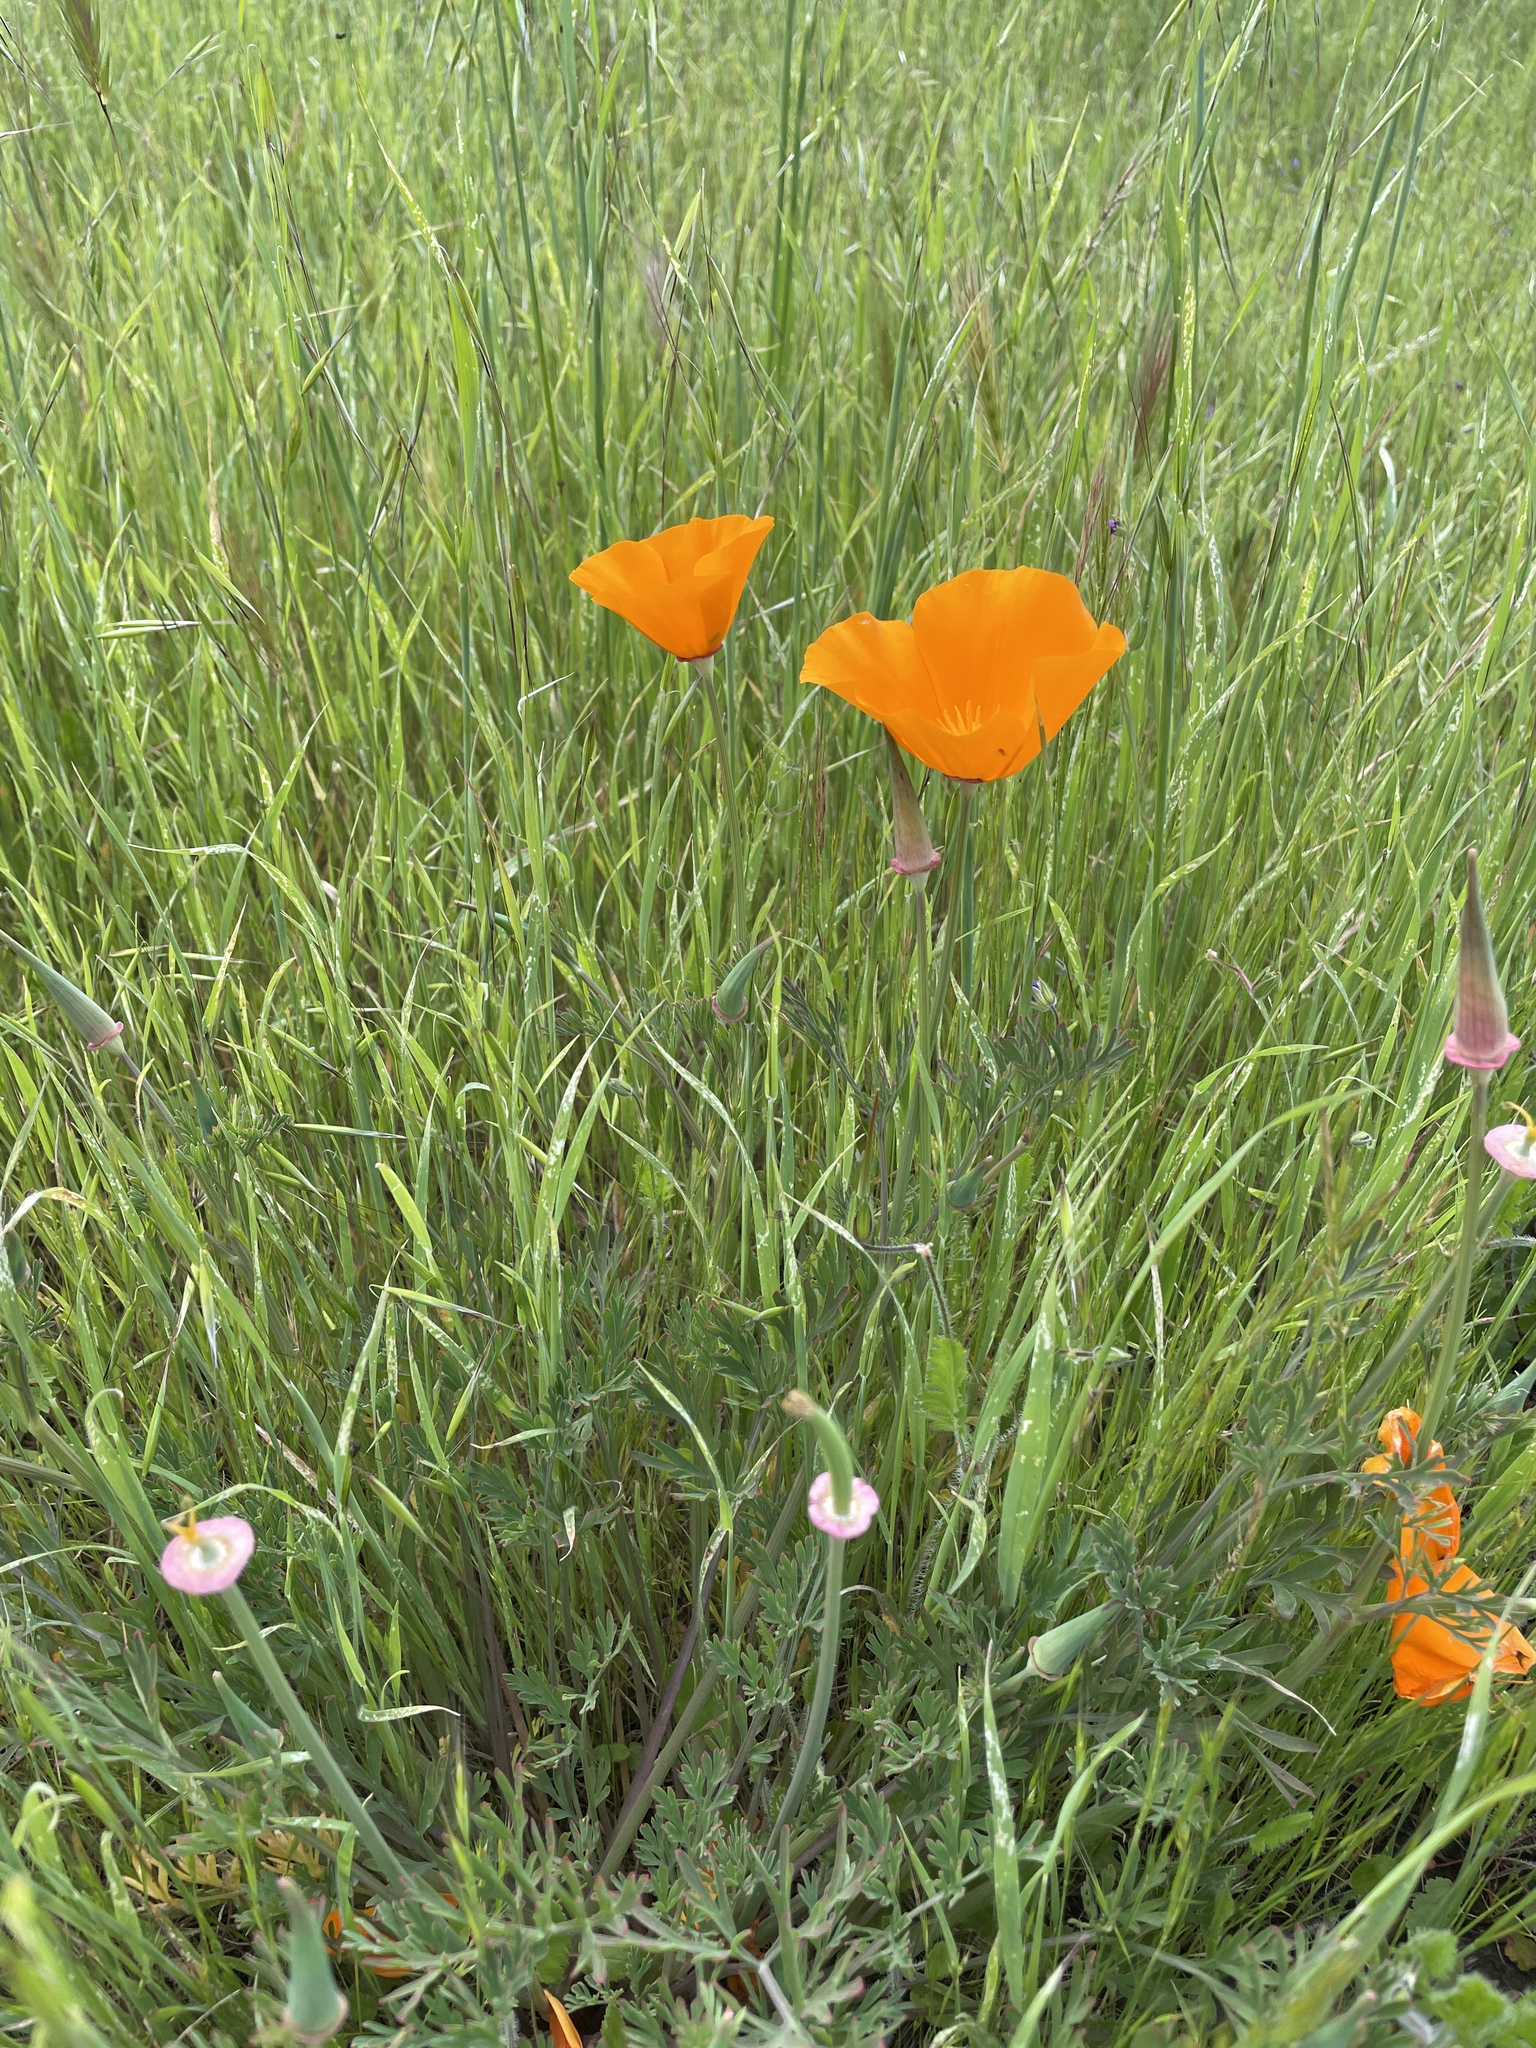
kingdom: Plantae
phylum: Tracheophyta
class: Magnoliopsida
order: Ranunculales
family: Papaveraceae
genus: Eschscholzia
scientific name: Eschscholzia californica
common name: California poppy
